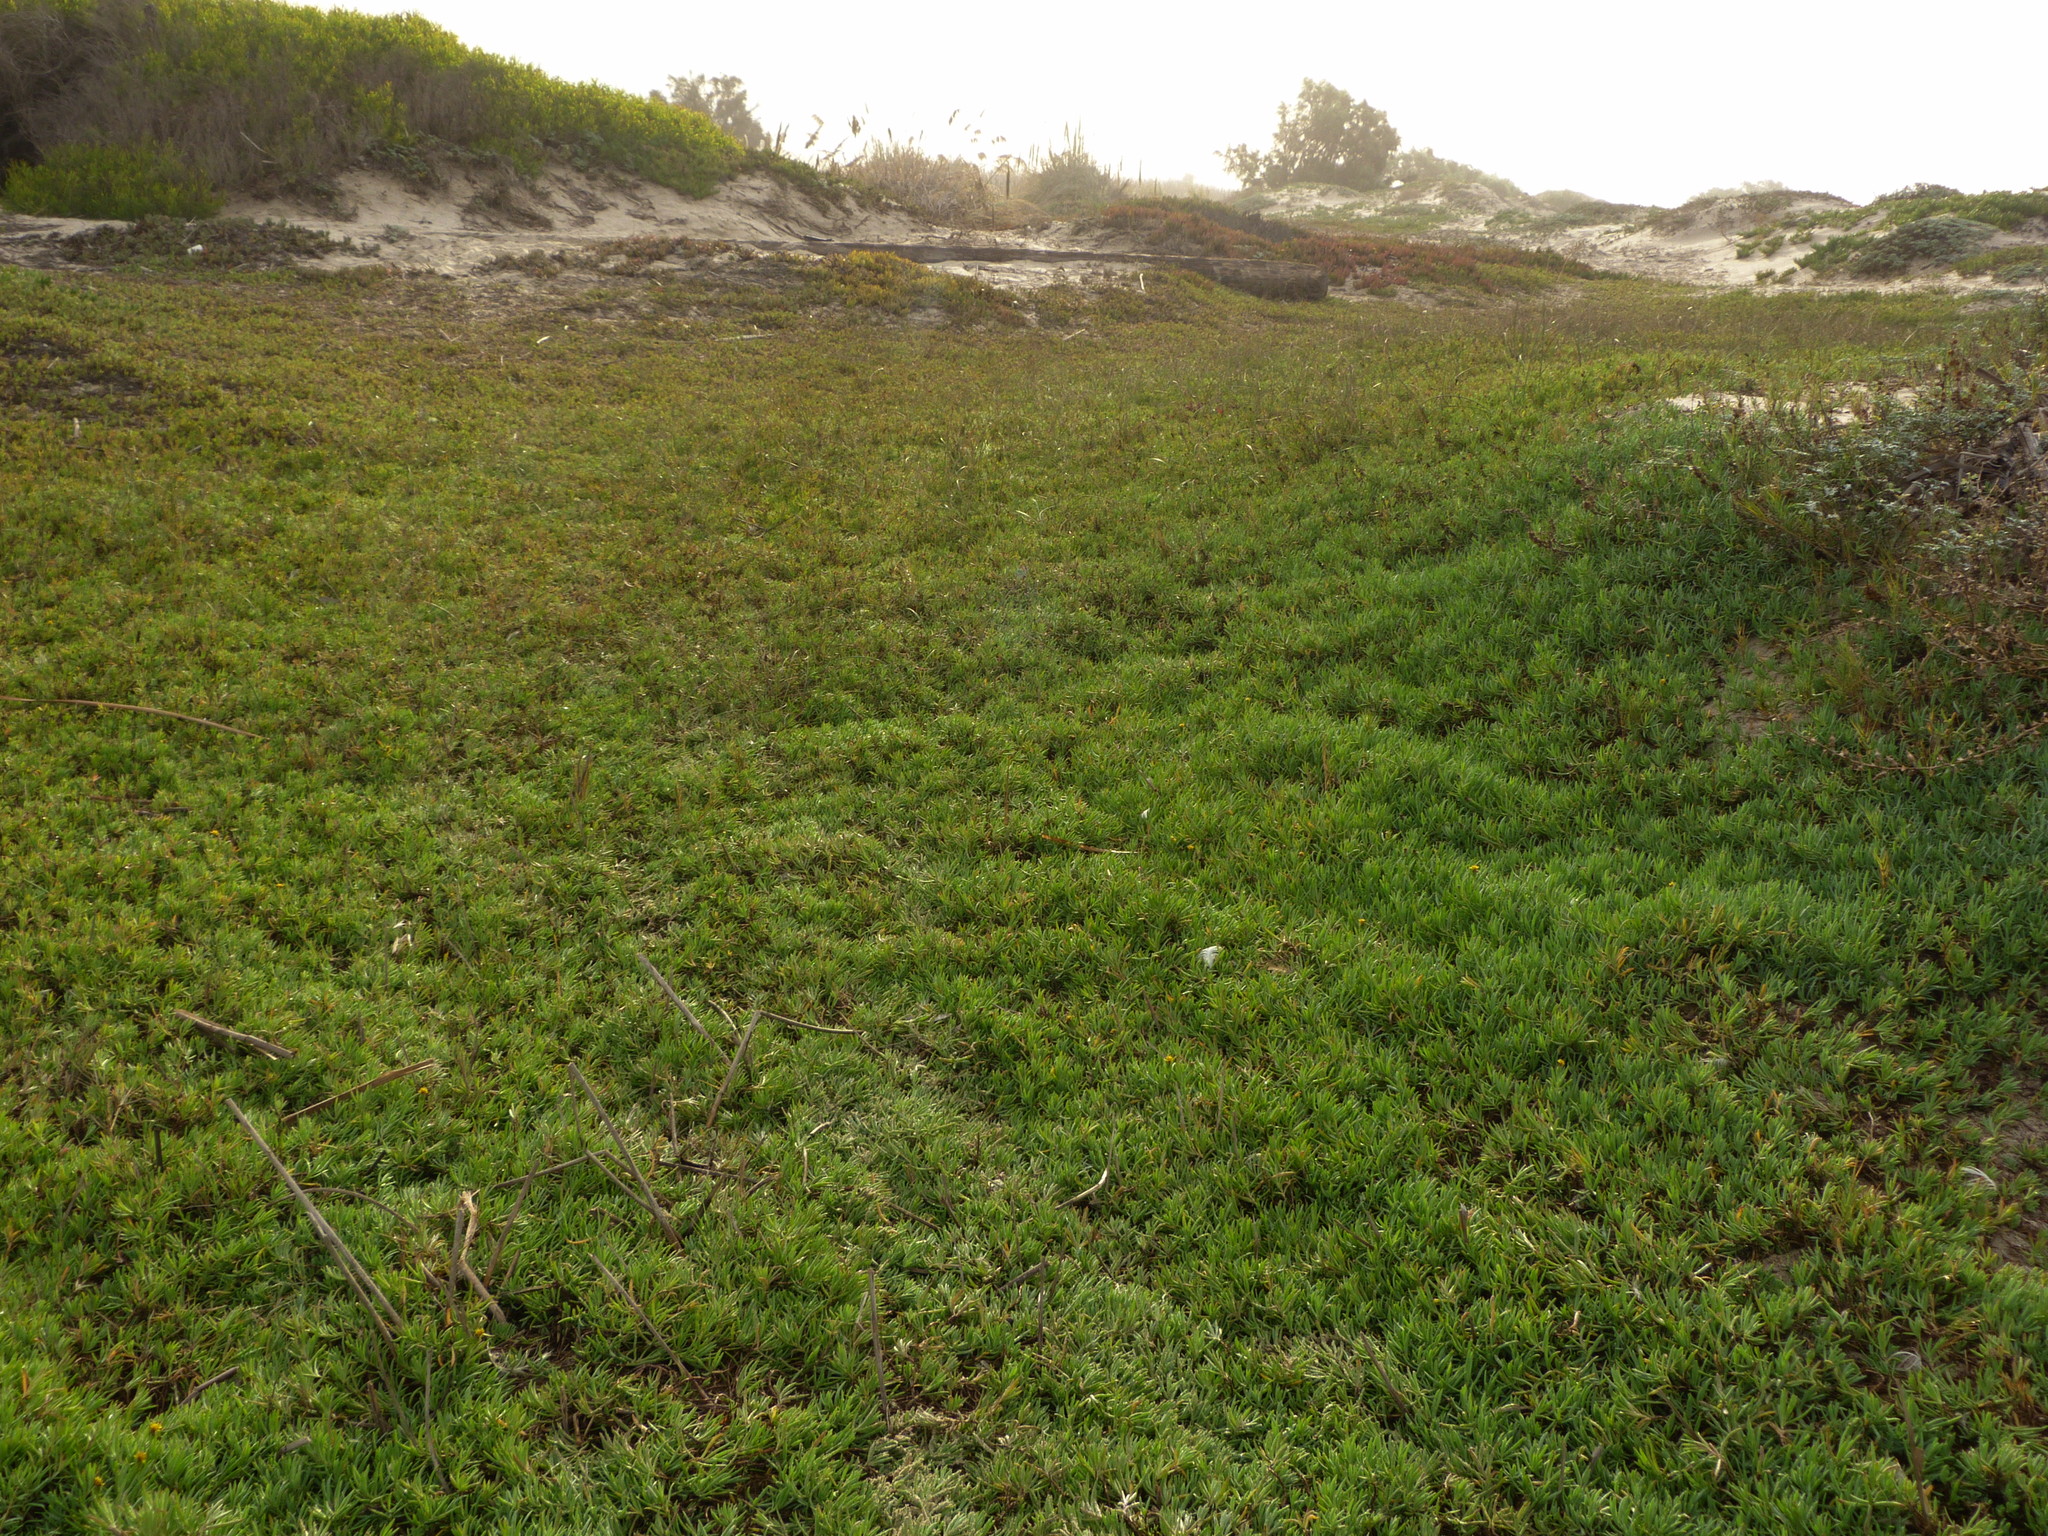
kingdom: Plantae
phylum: Tracheophyta
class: Magnoliopsida
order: Asterales
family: Asteraceae
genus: Jaumea
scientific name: Jaumea carnosa
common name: Fleshy jaumea
